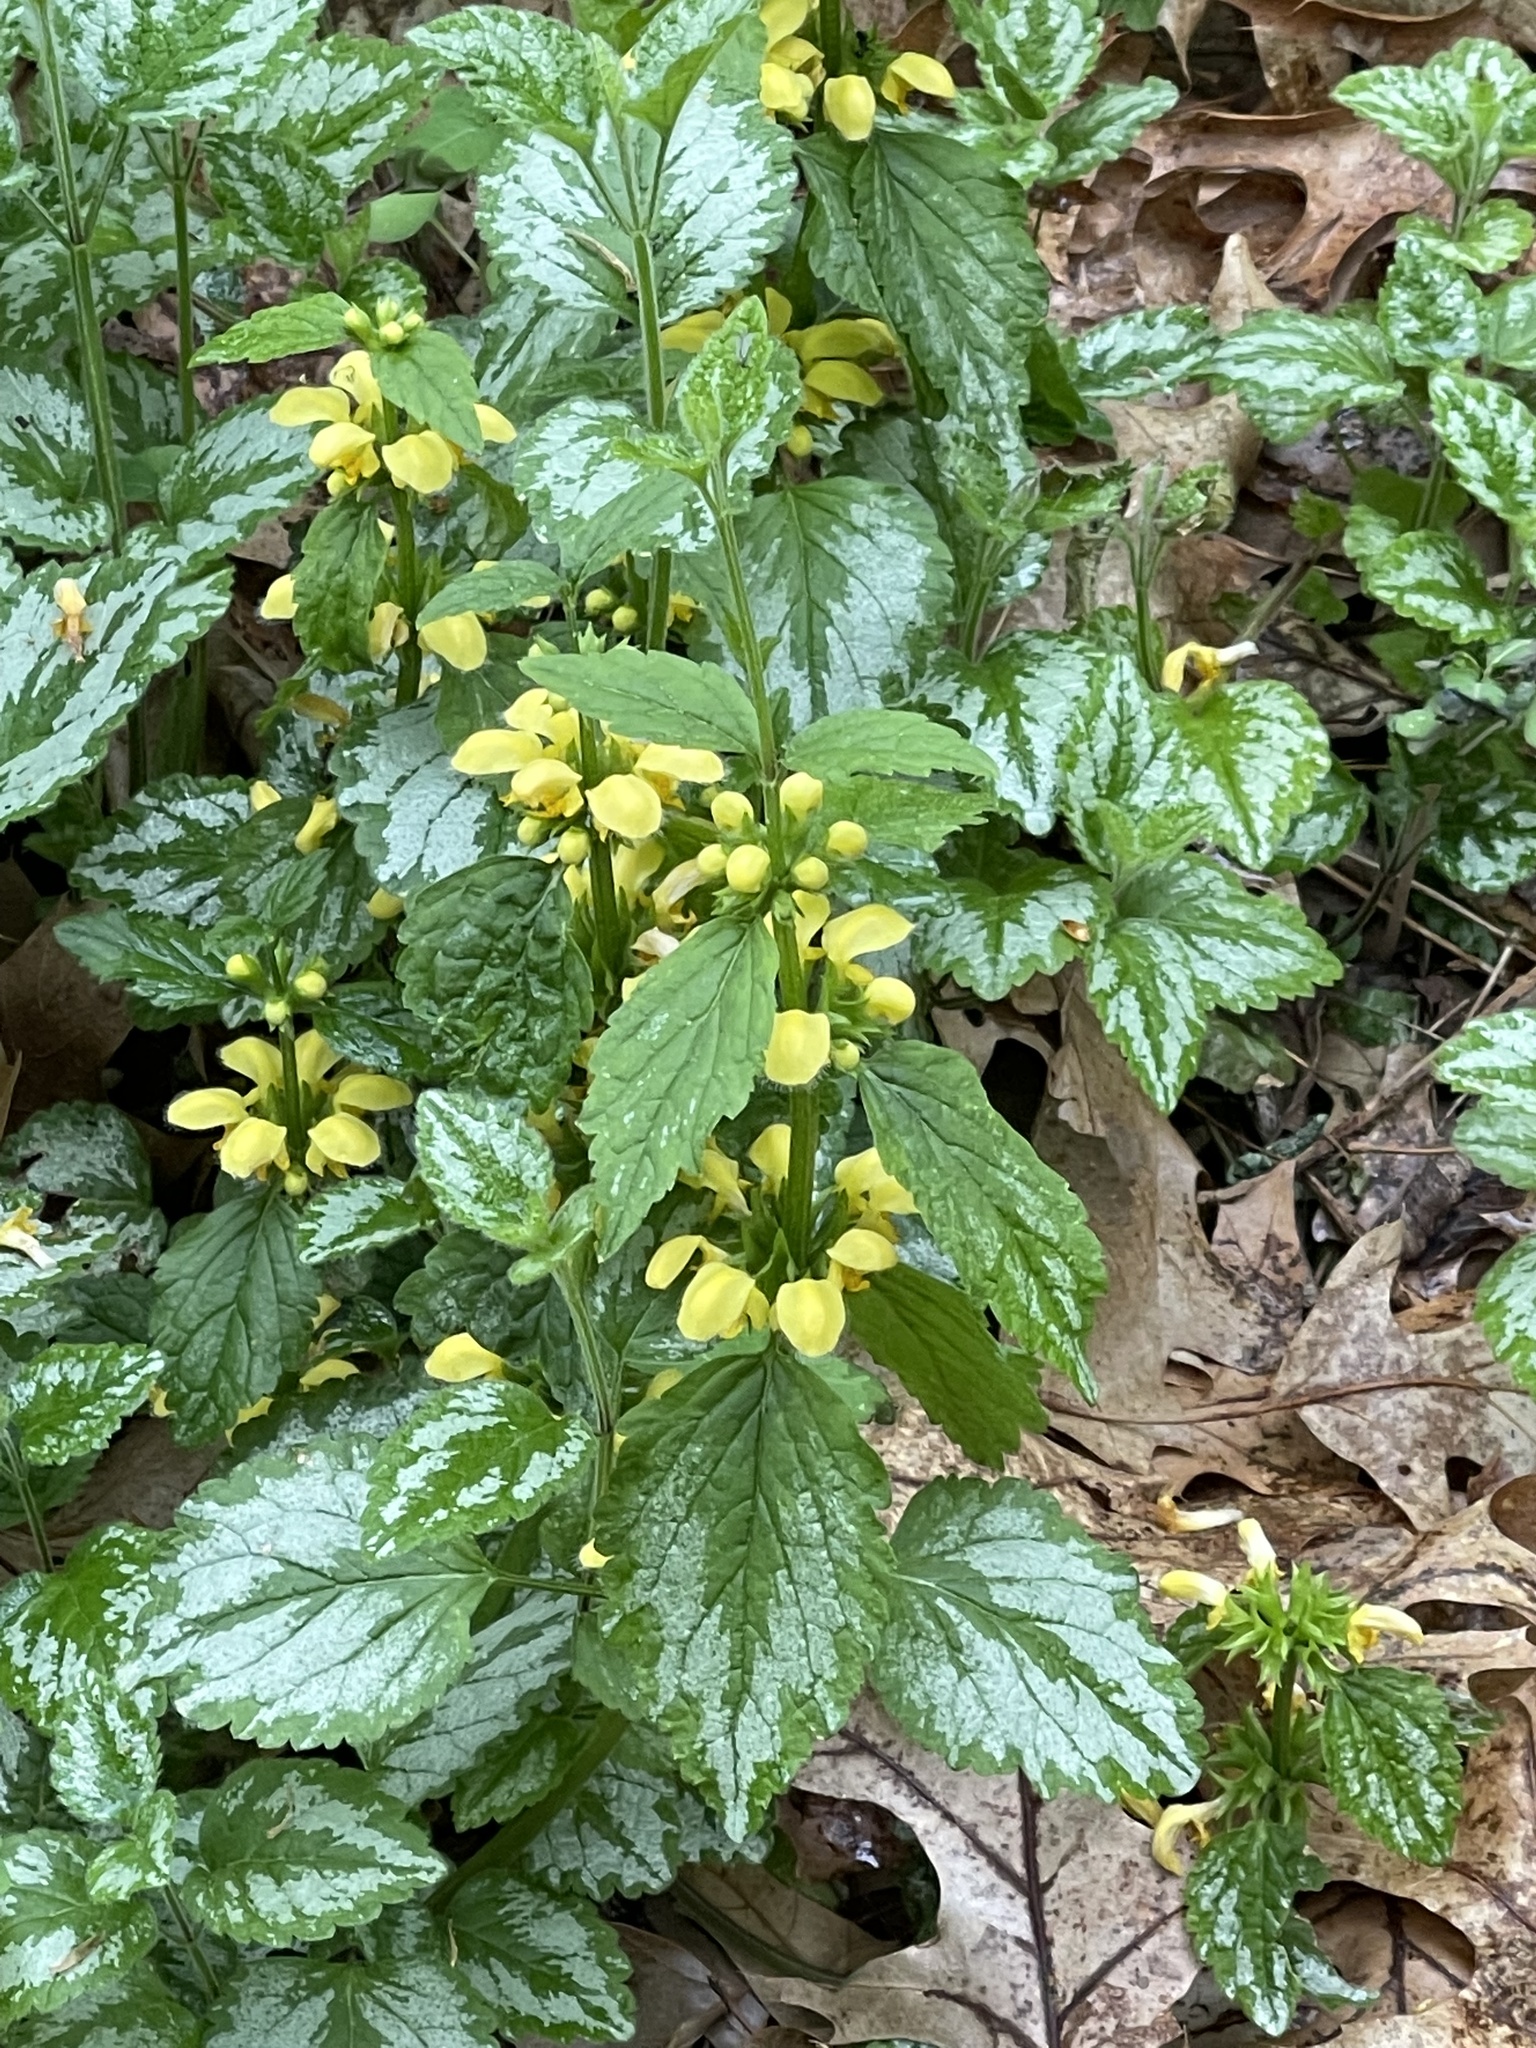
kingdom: Plantae
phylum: Tracheophyta
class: Magnoliopsida
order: Lamiales
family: Lamiaceae
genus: Lamium
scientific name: Lamium galeobdolon
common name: Yellow archangel
